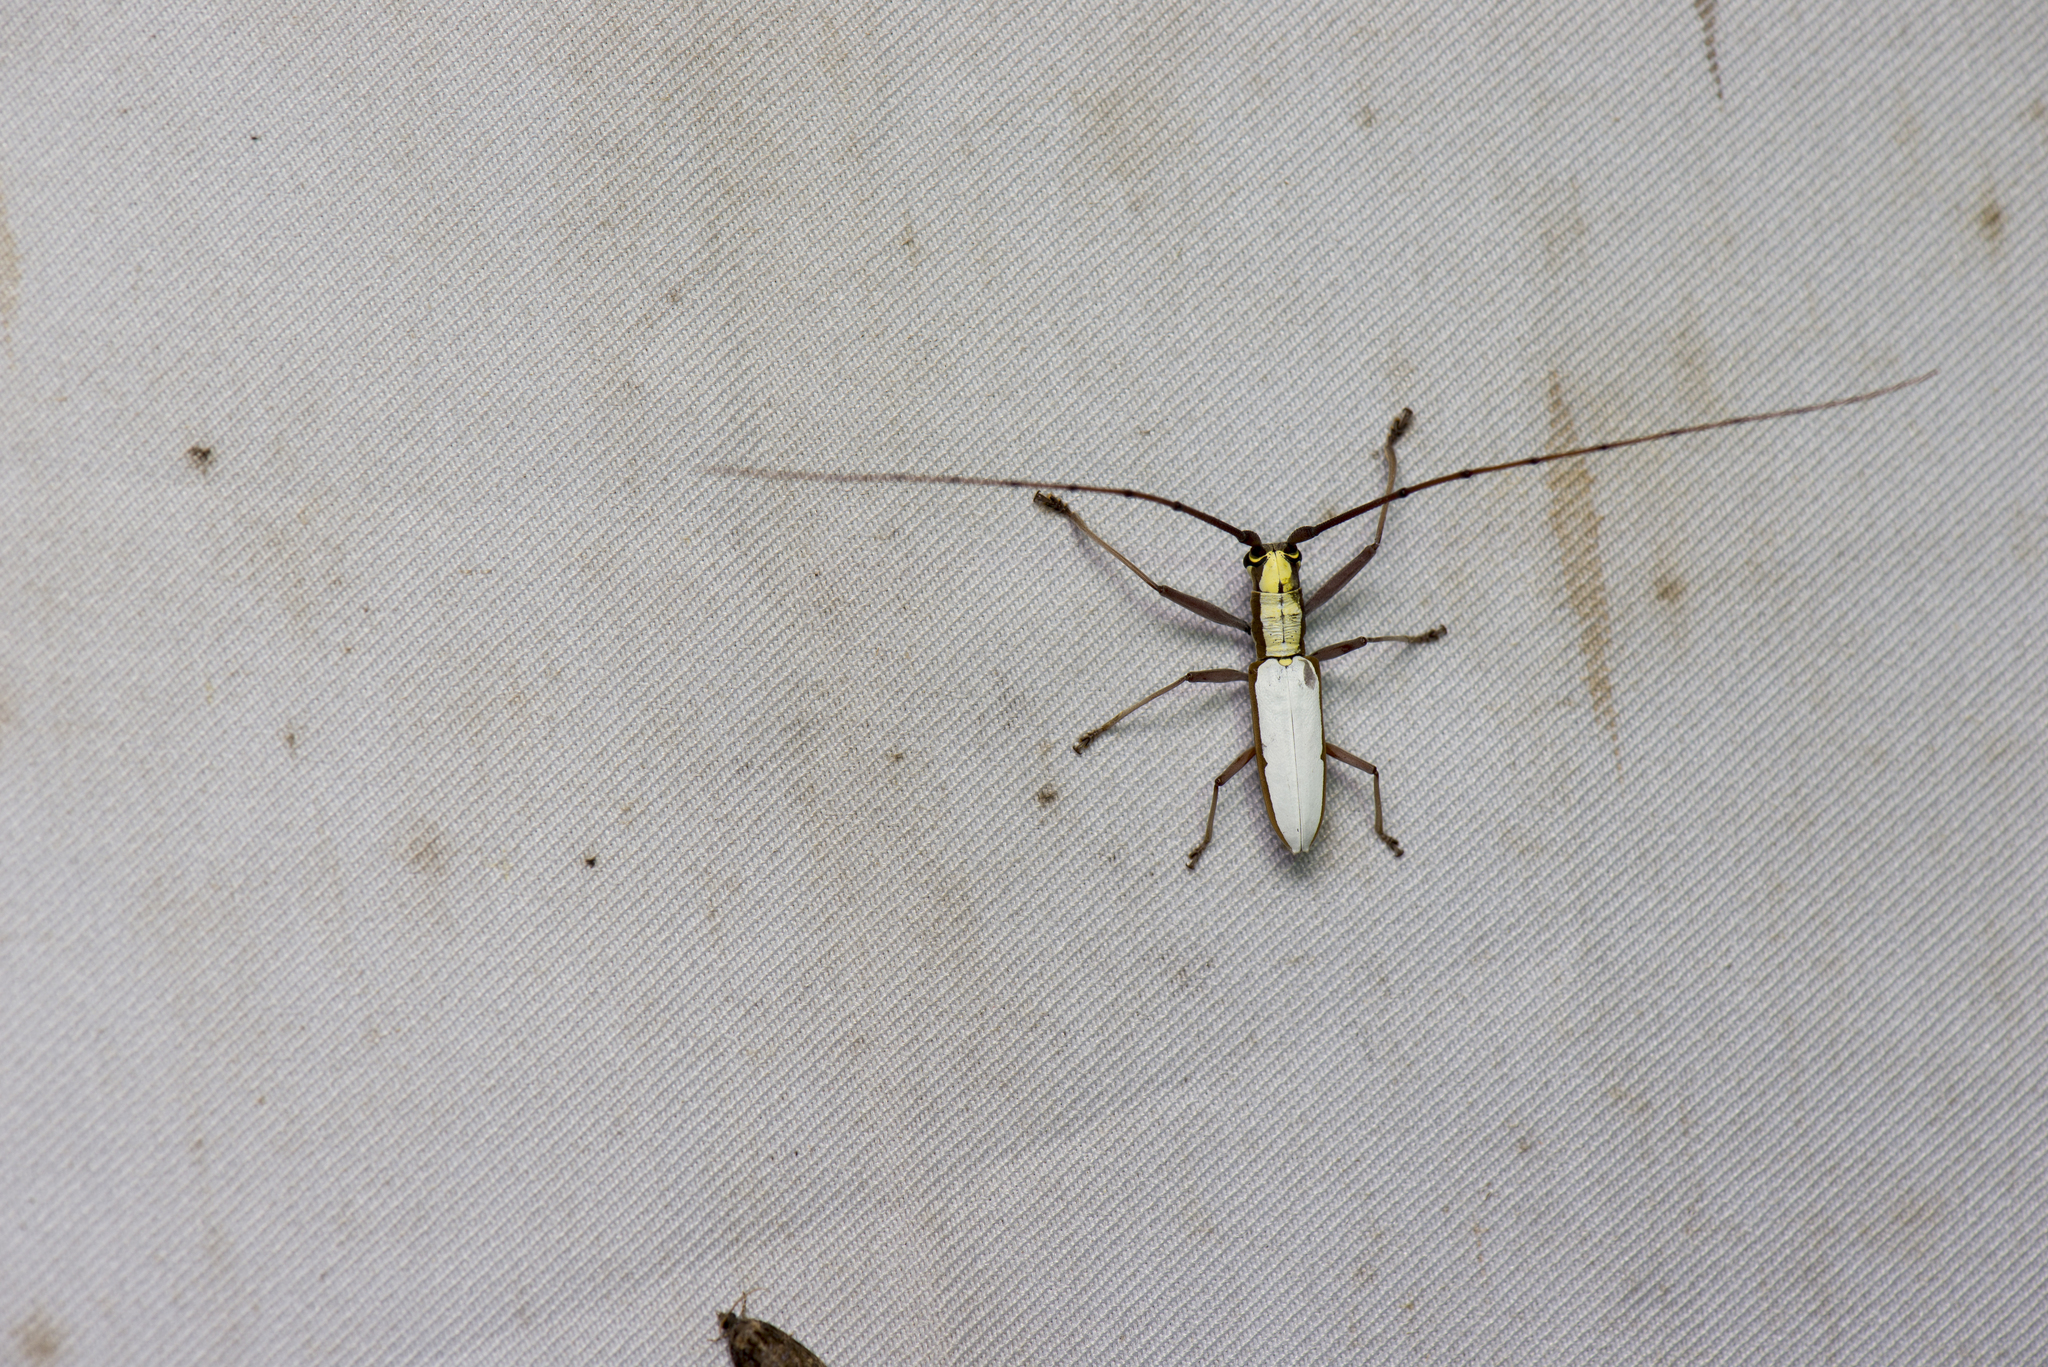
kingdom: Animalia
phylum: Arthropoda
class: Insecta
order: Coleoptera
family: Cerambycidae
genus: Olenecamptus
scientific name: Olenecamptus cretaceus
